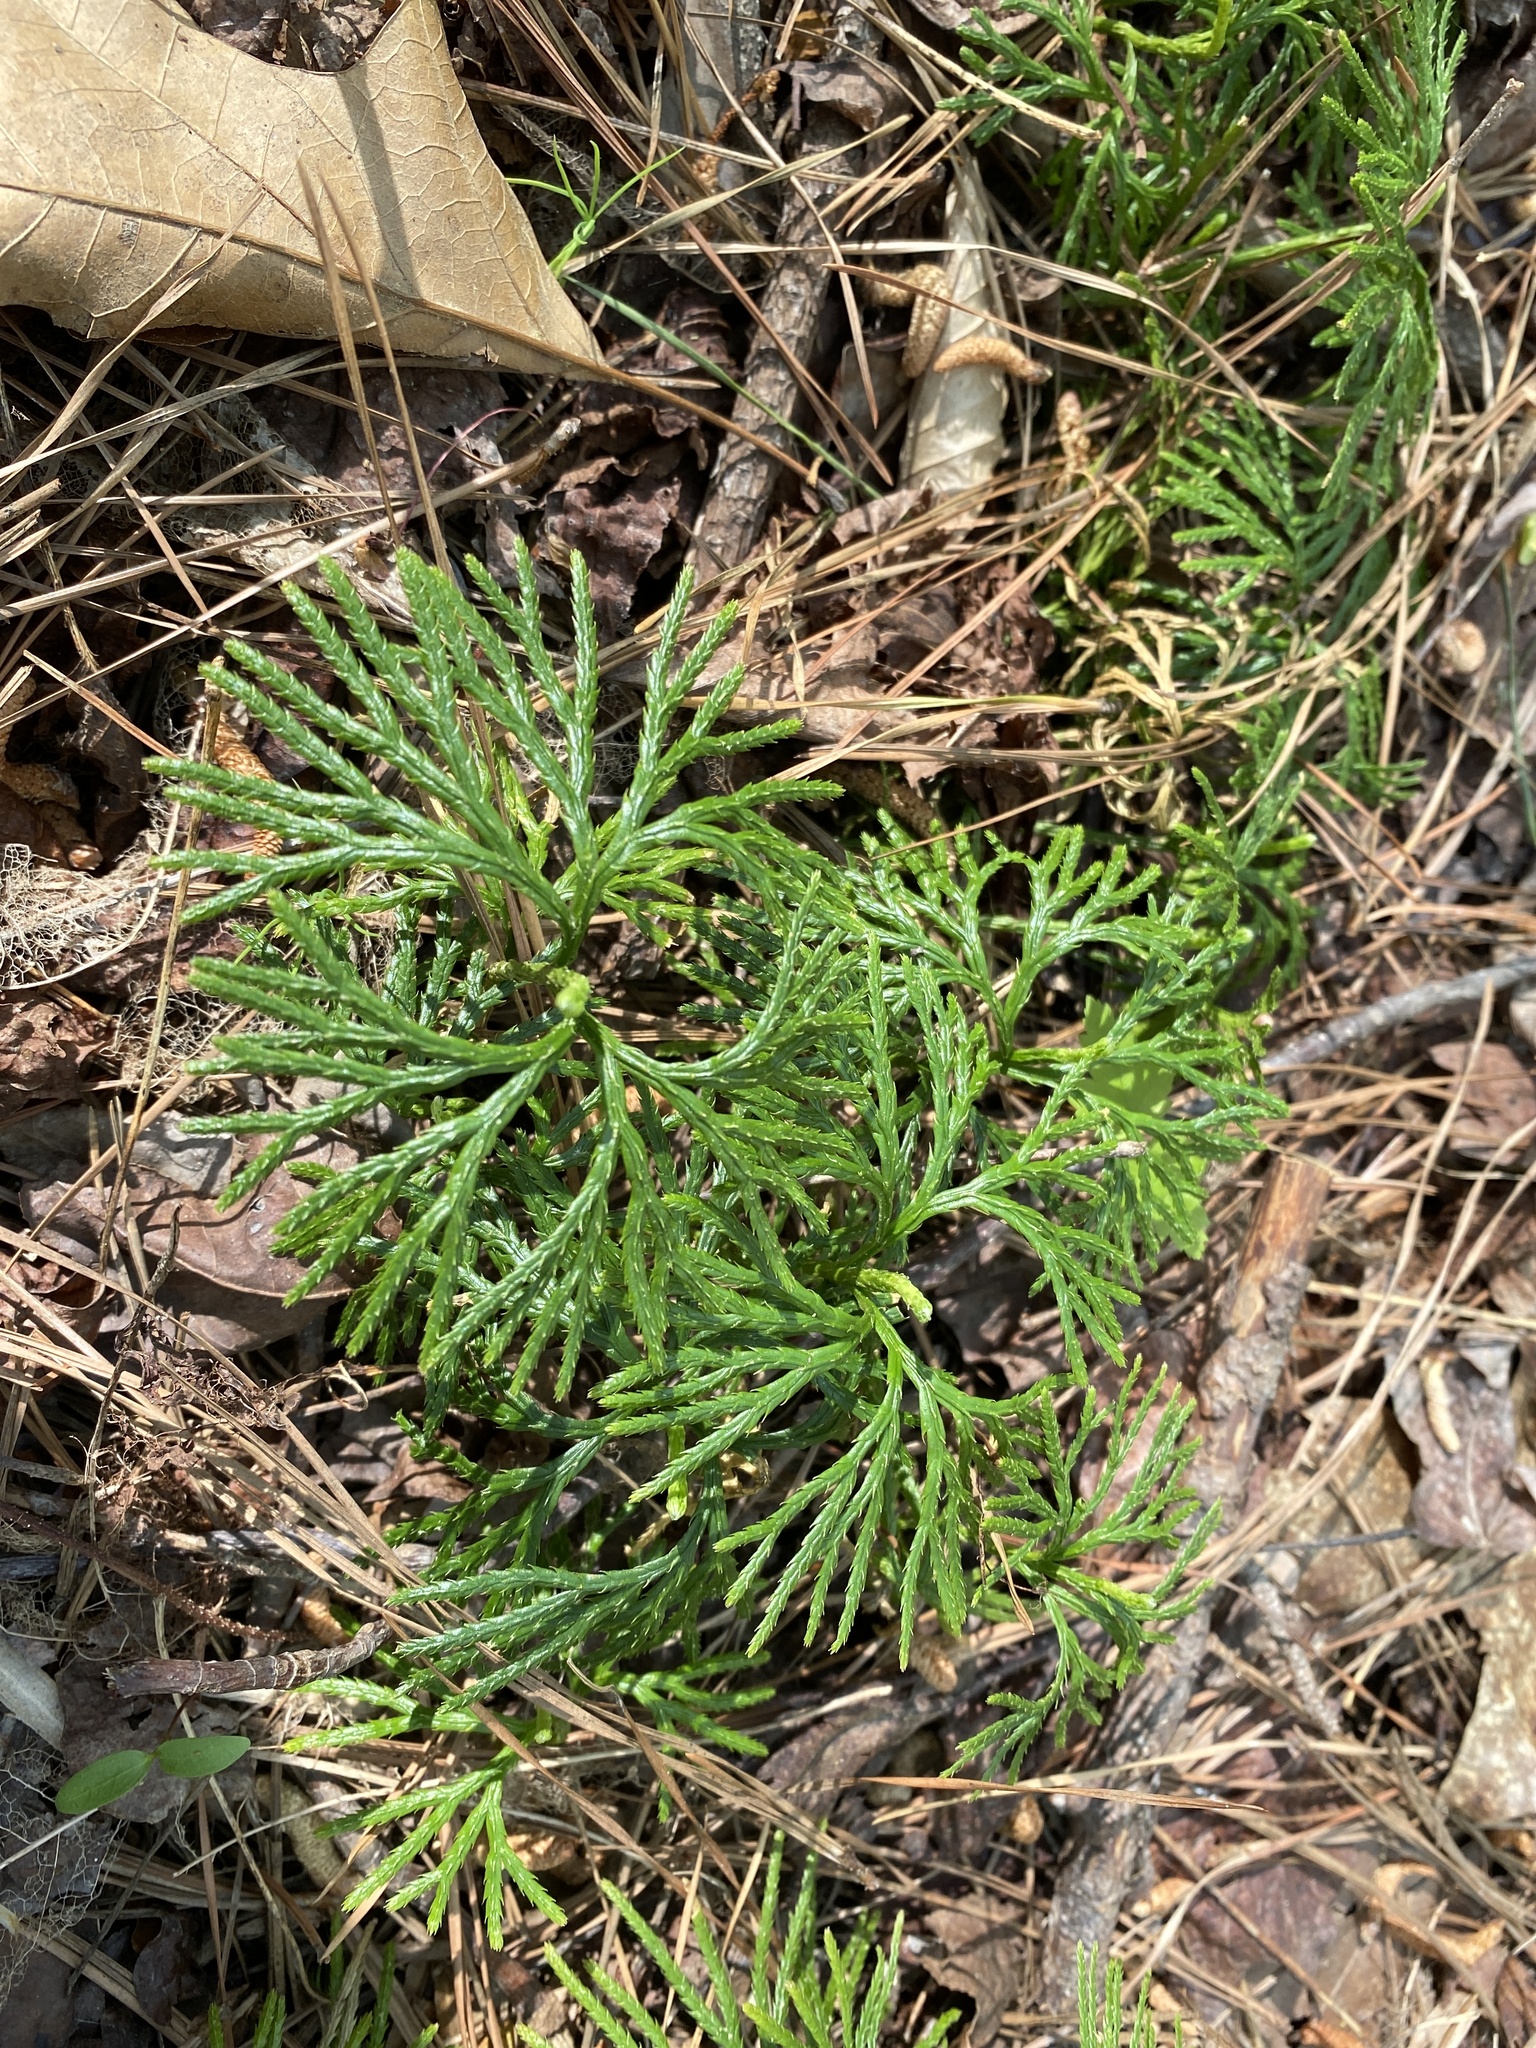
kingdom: Plantae
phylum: Tracheophyta
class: Lycopodiopsida
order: Lycopodiales
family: Lycopodiaceae
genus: Diphasiastrum
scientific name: Diphasiastrum digitatum
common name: Southern running-pine
